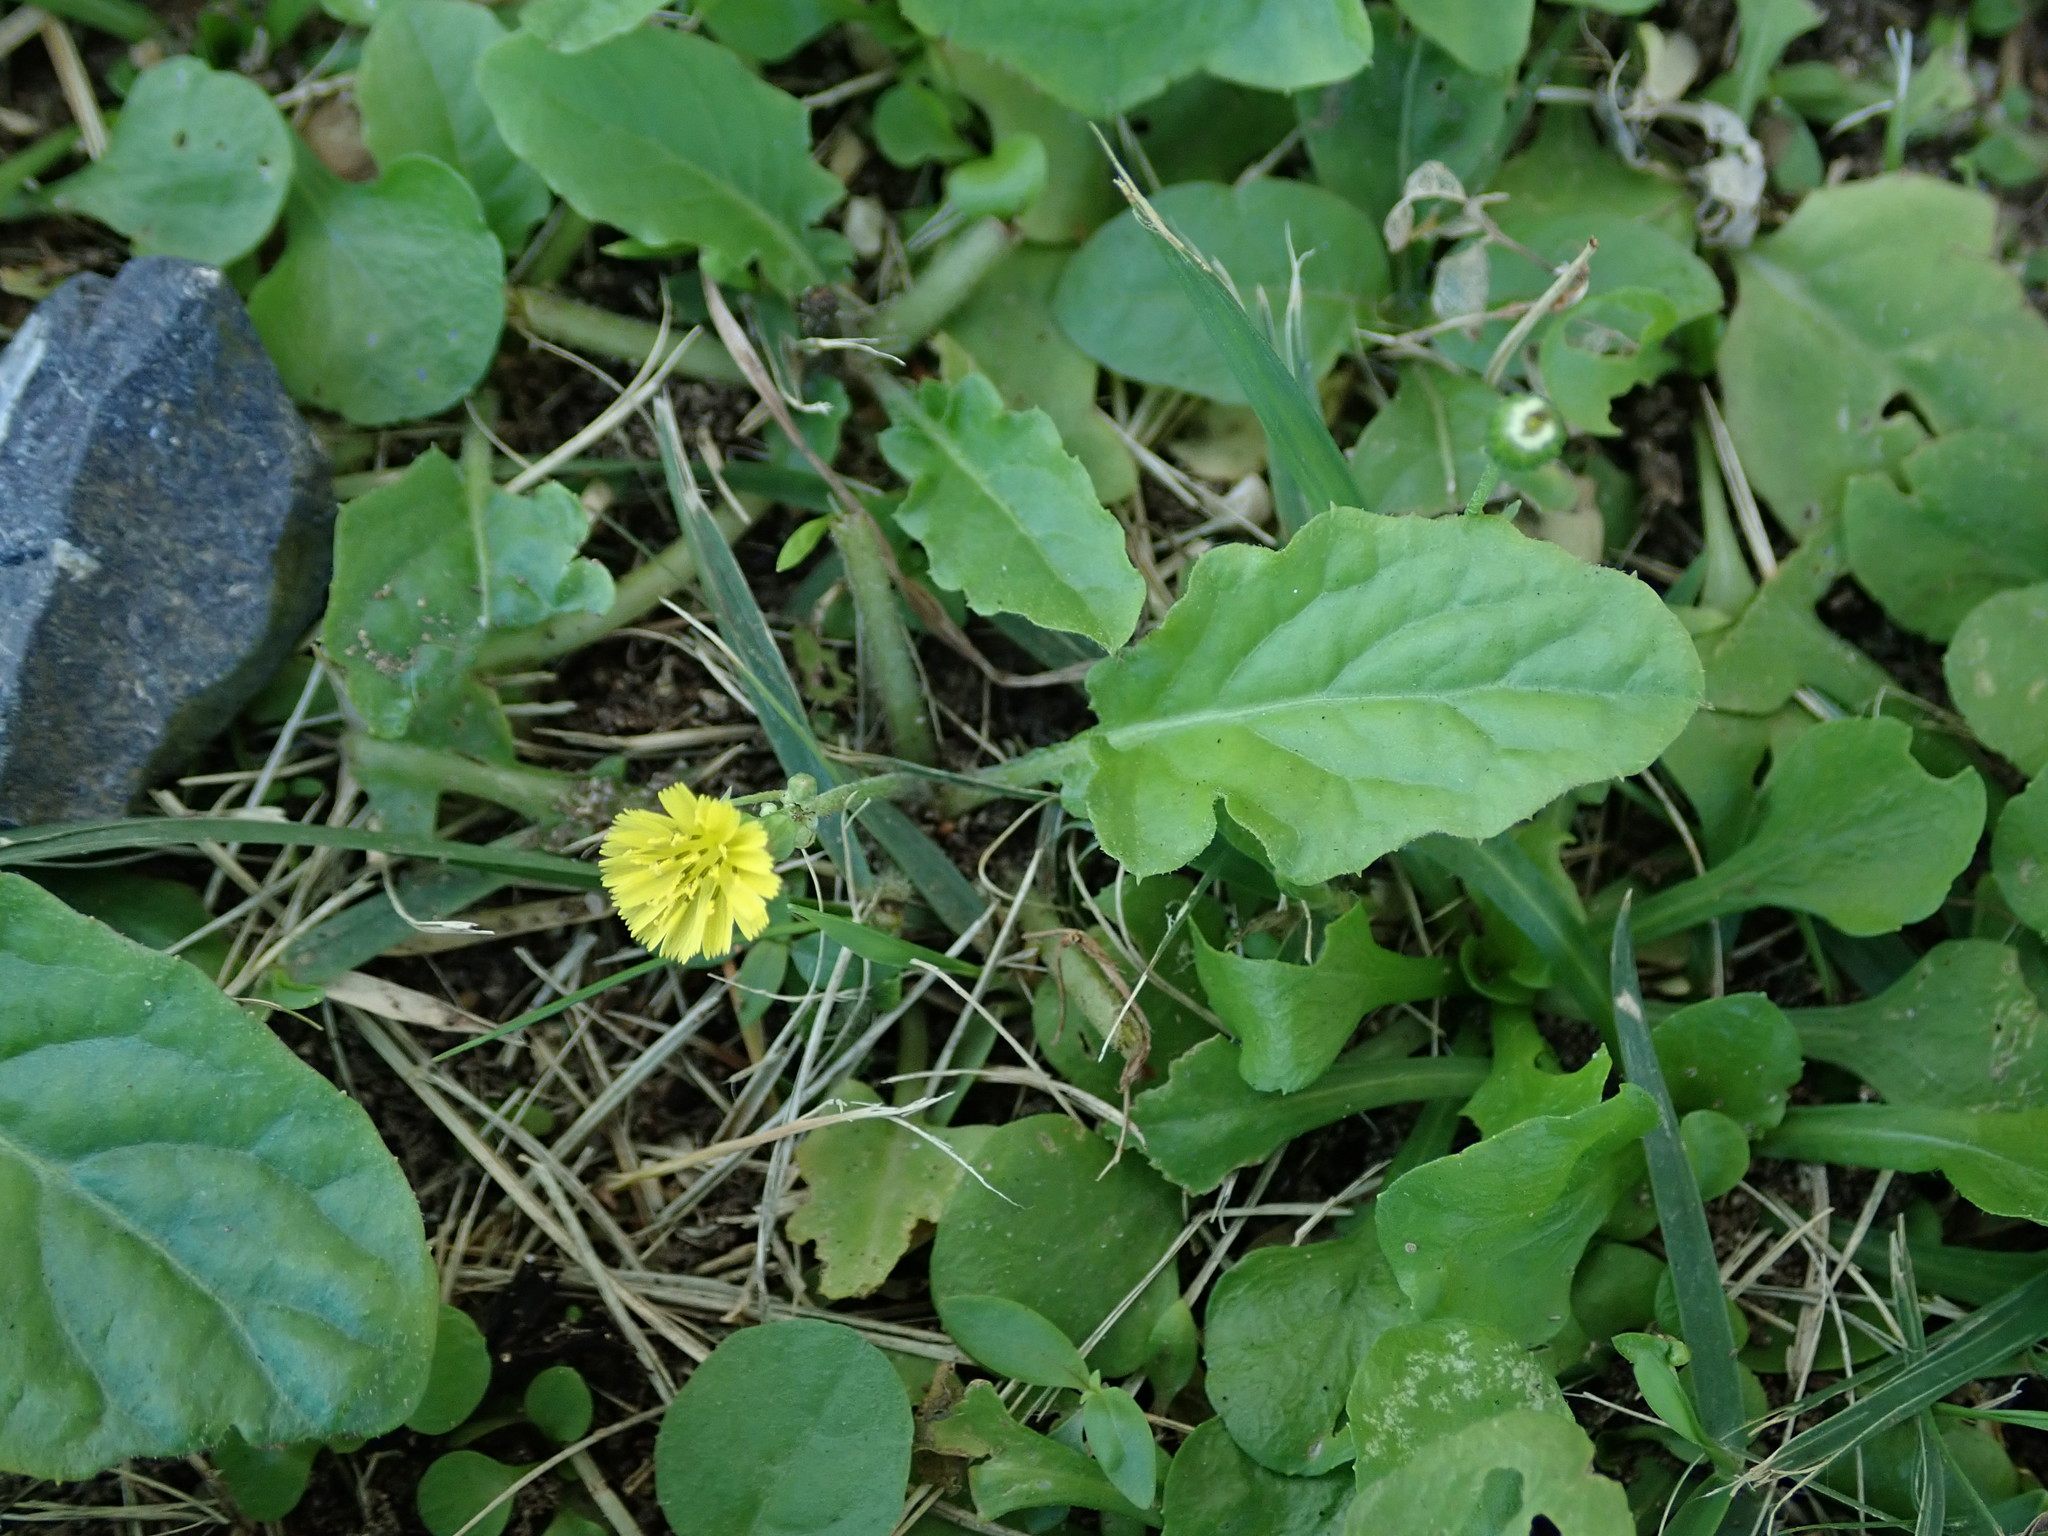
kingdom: Plantae
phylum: Tracheophyta
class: Magnoliopsida
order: Asterales
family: Asteraceae
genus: Youngia
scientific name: Youngia japonica
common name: Oriental false hawksbeard
